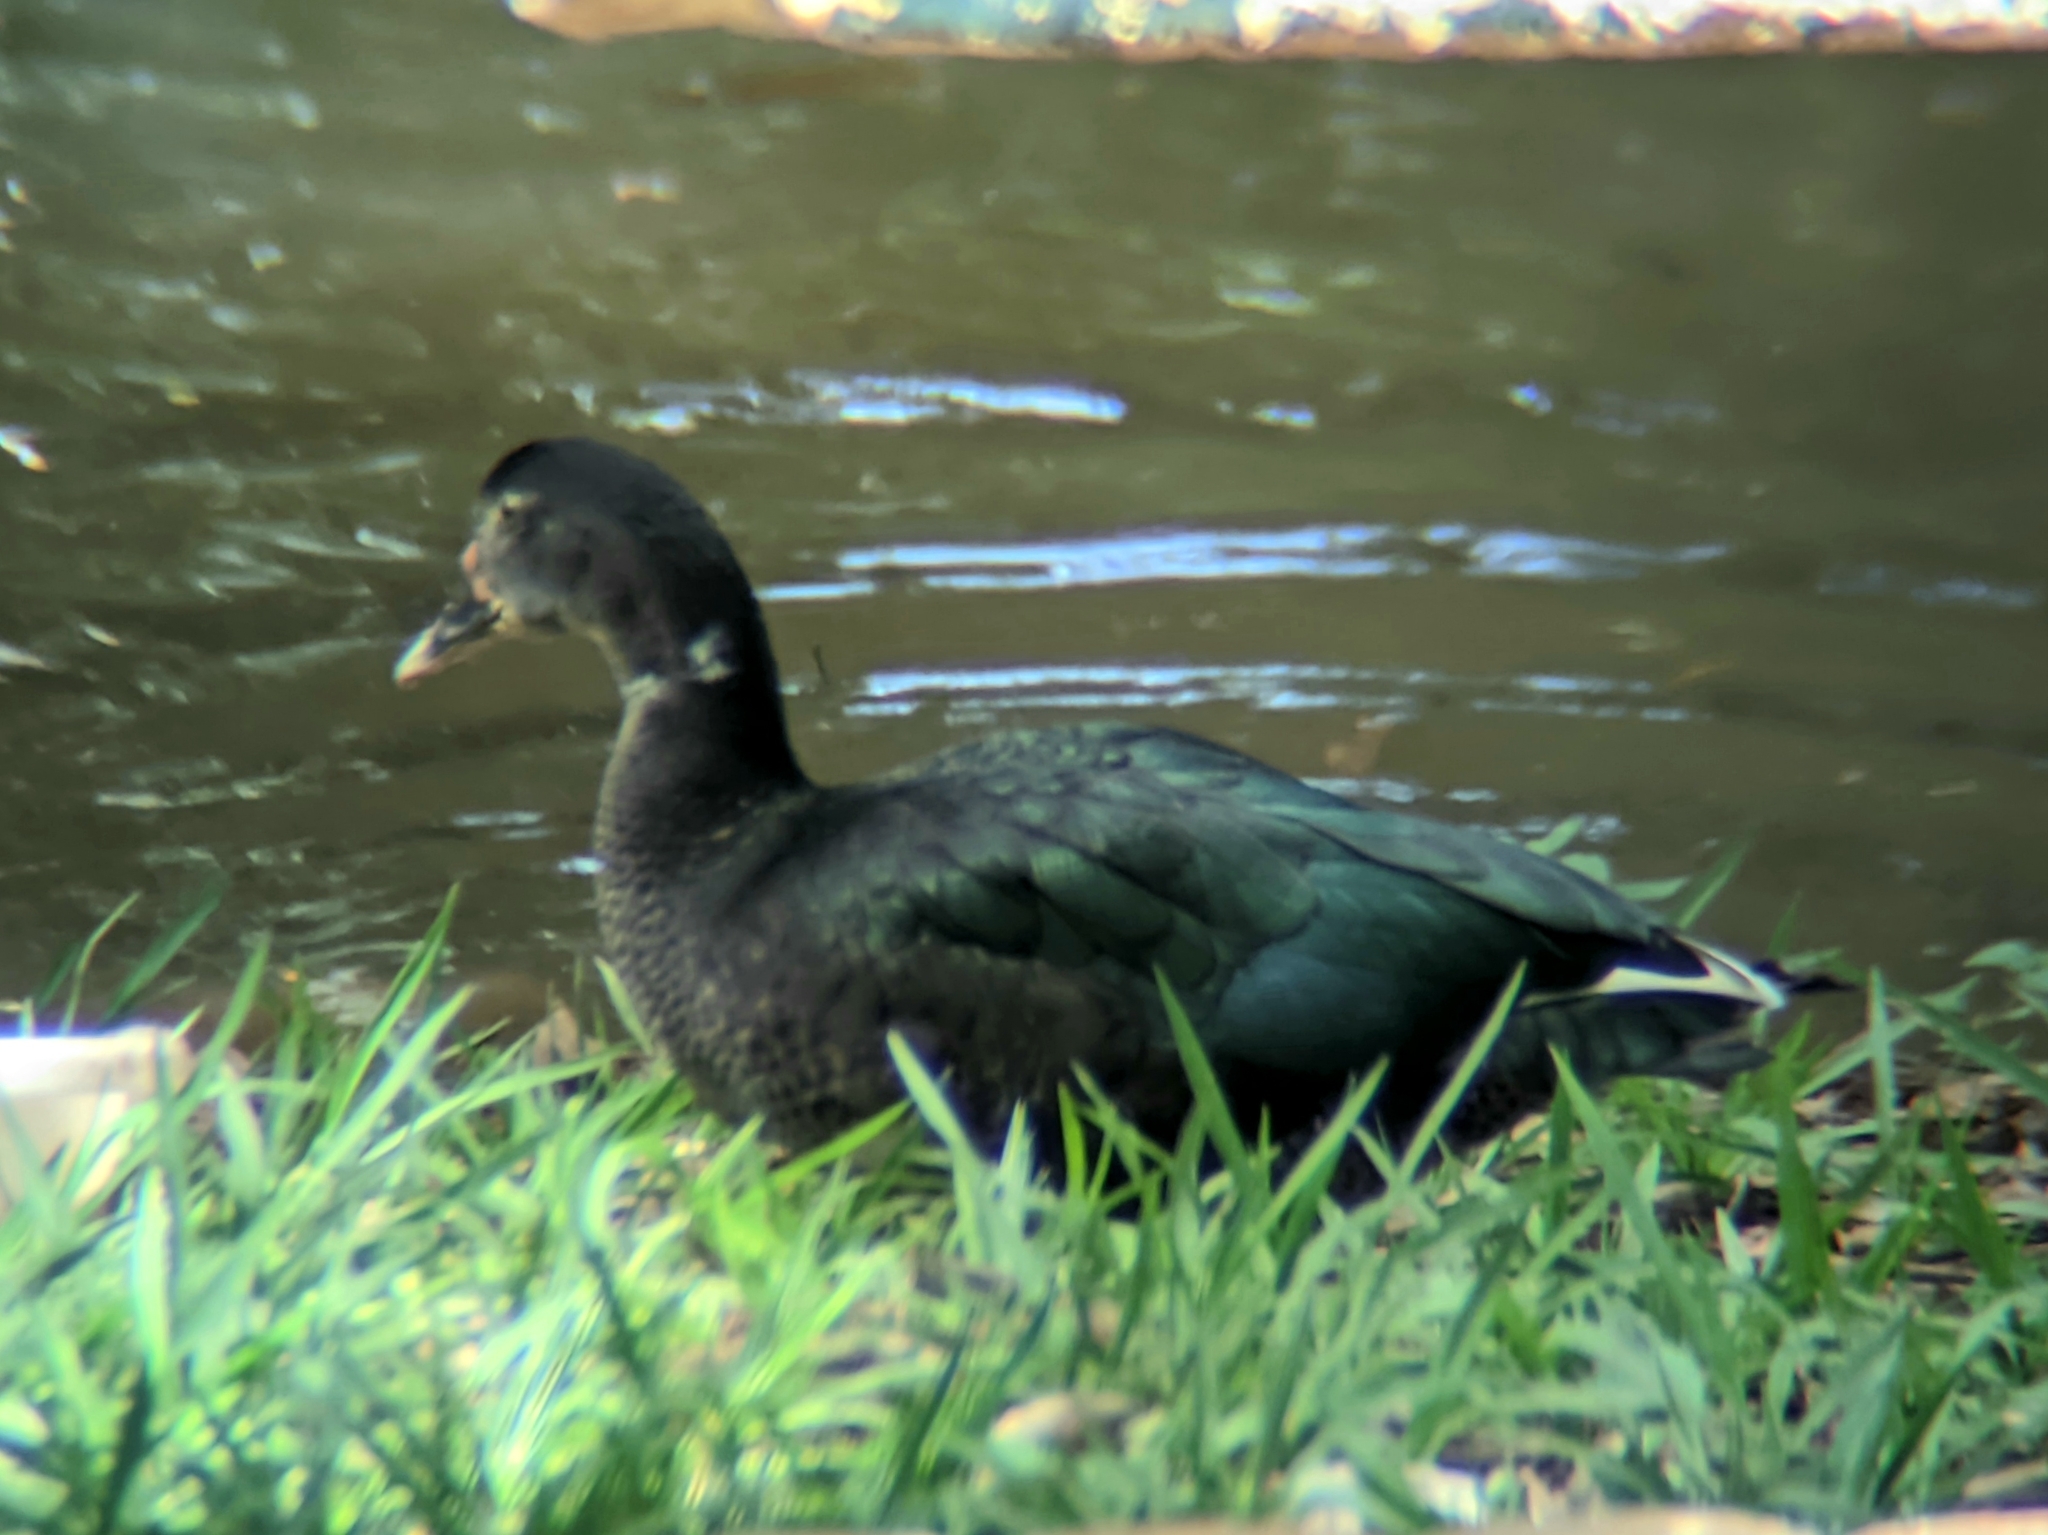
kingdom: Animalia
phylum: Chordata
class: Aves
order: Anseriformes
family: Anatidae
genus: Cairina
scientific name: Cairina moschata
